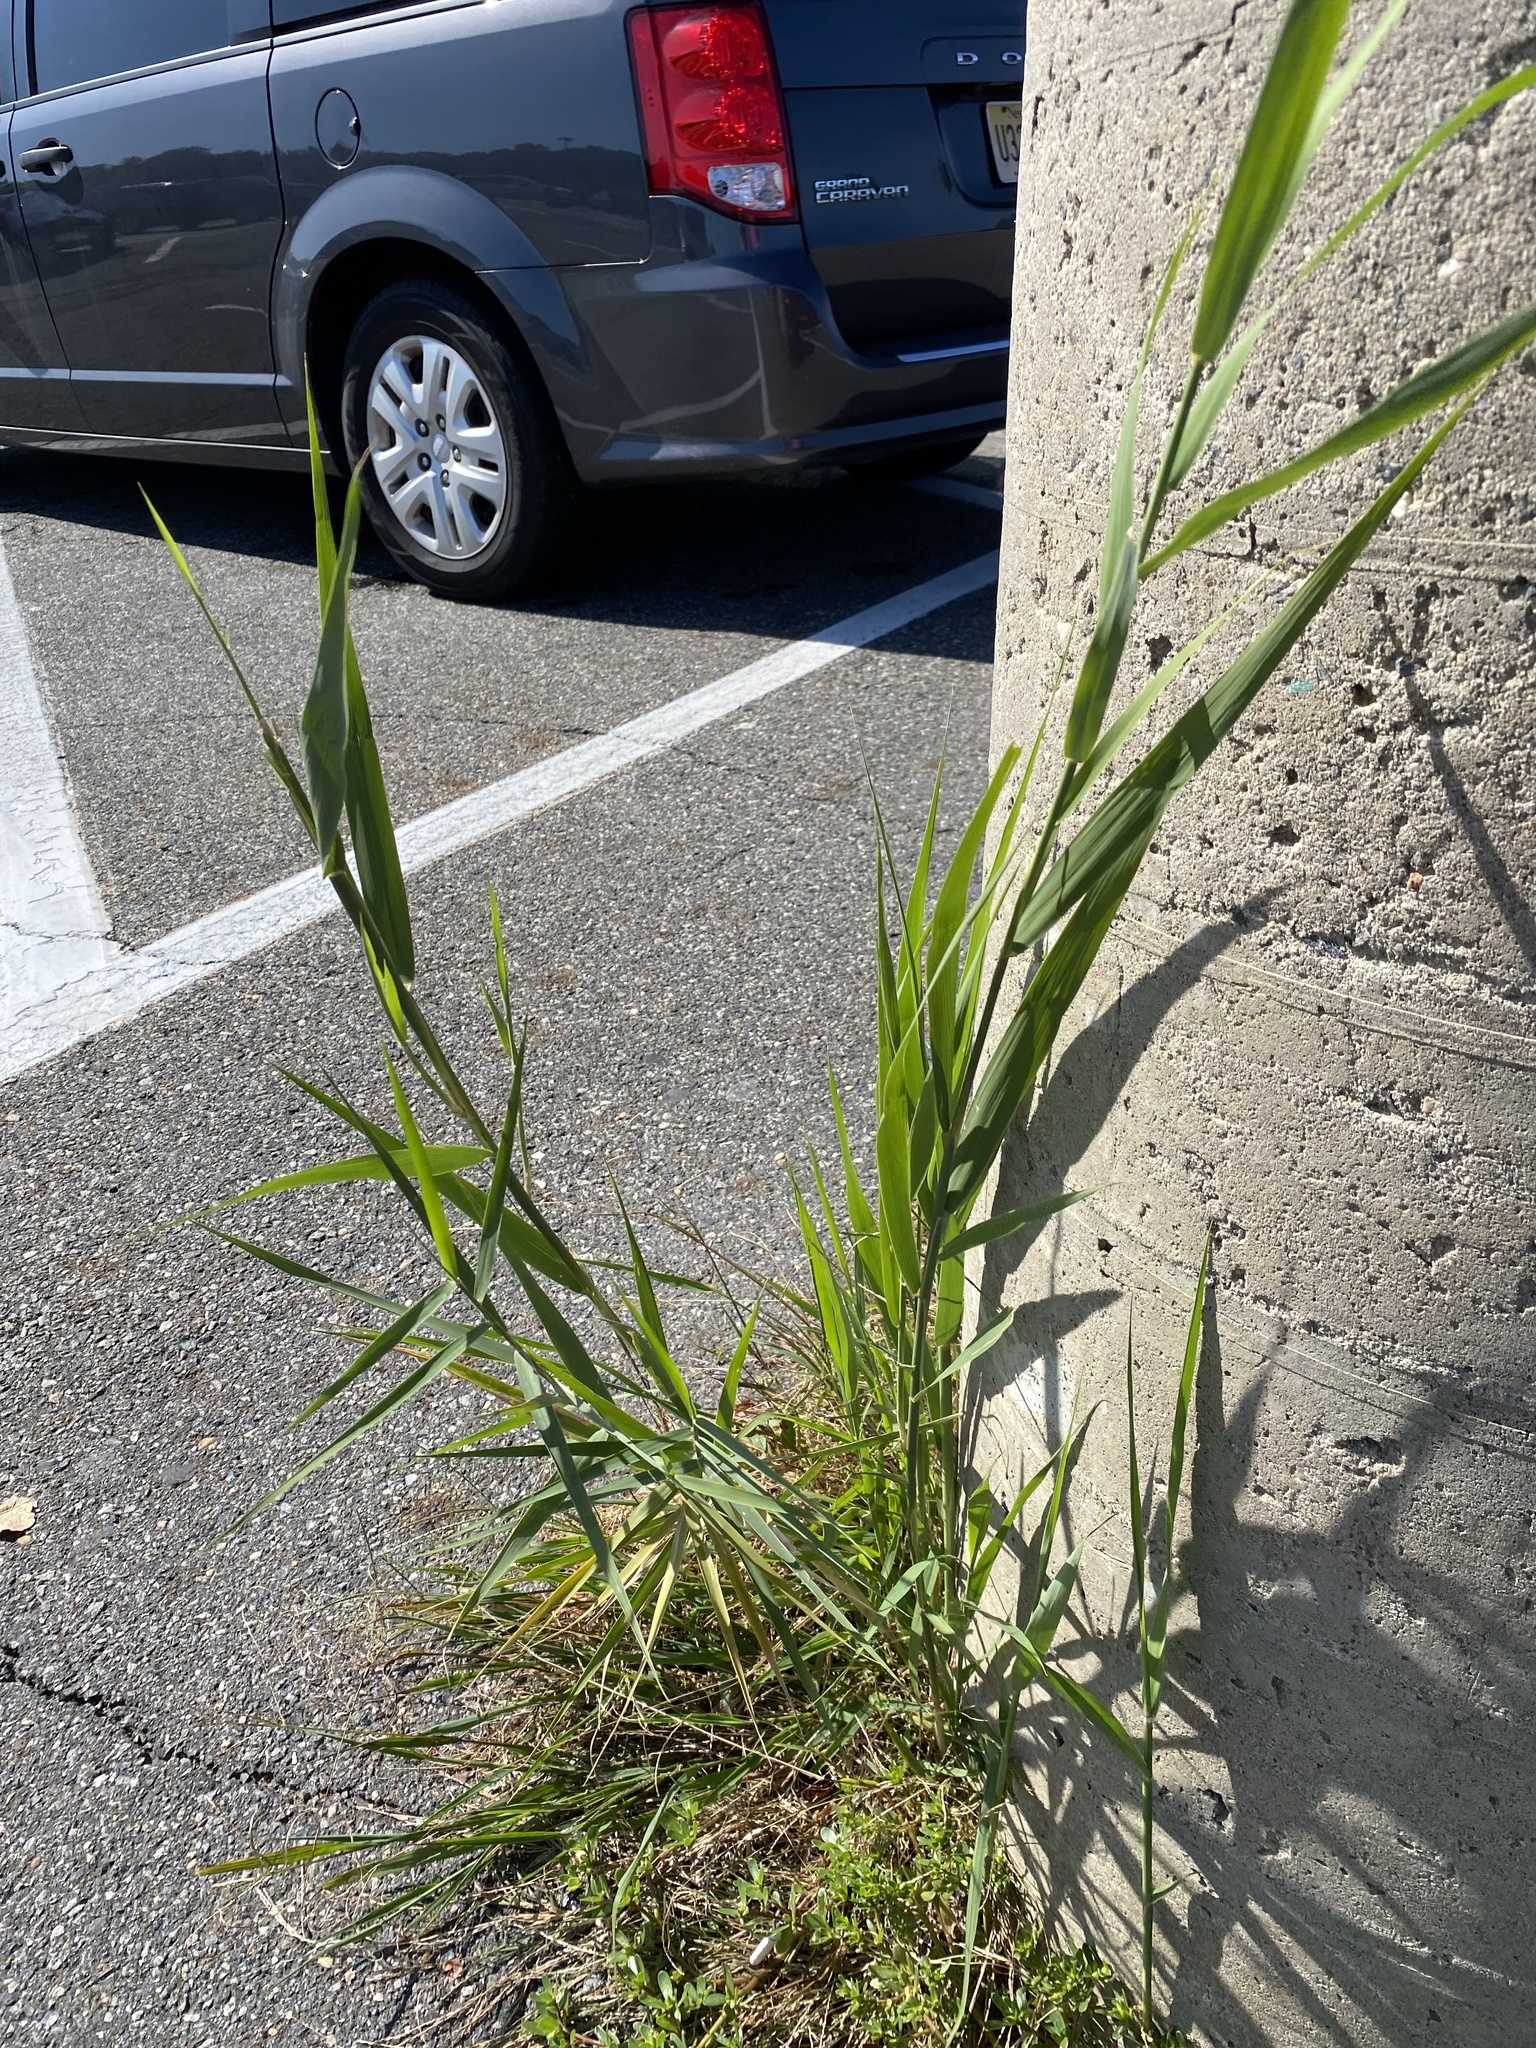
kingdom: Plantae
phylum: Tracheophyta
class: Liliopsida
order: Poales
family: Poaceae
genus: Phragmites
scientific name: Phragmites australis
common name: Common reed
